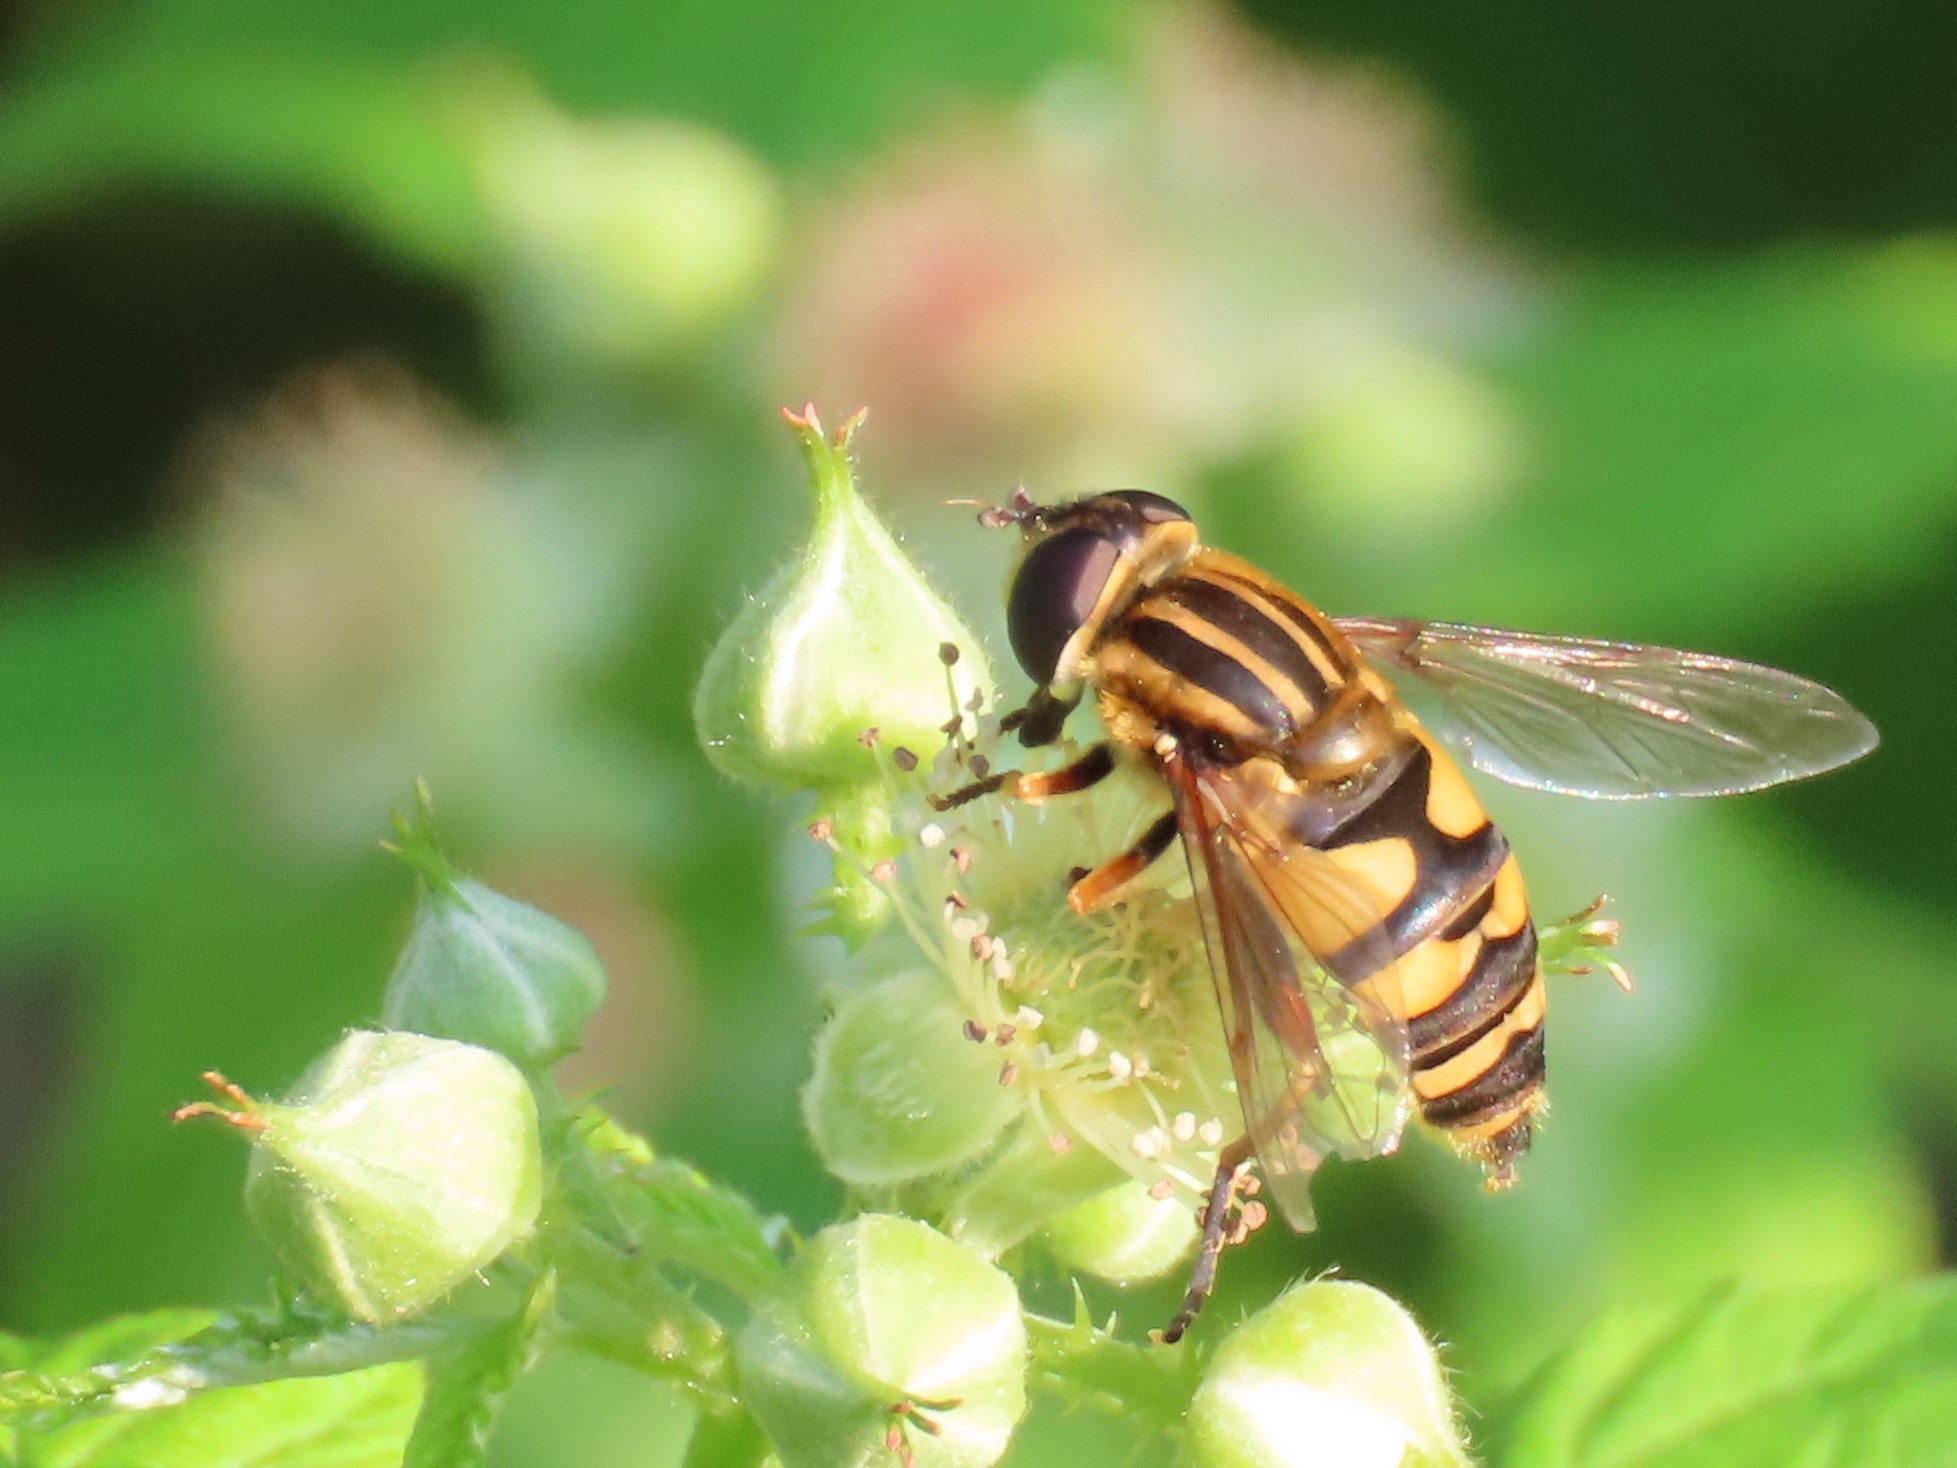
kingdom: Animalia
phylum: Arthropoda
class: Insecta
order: Diptera
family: Syrphidae
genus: Helophilus
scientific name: Helophilus fasciatus
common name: Narrow-headed marsh fly
